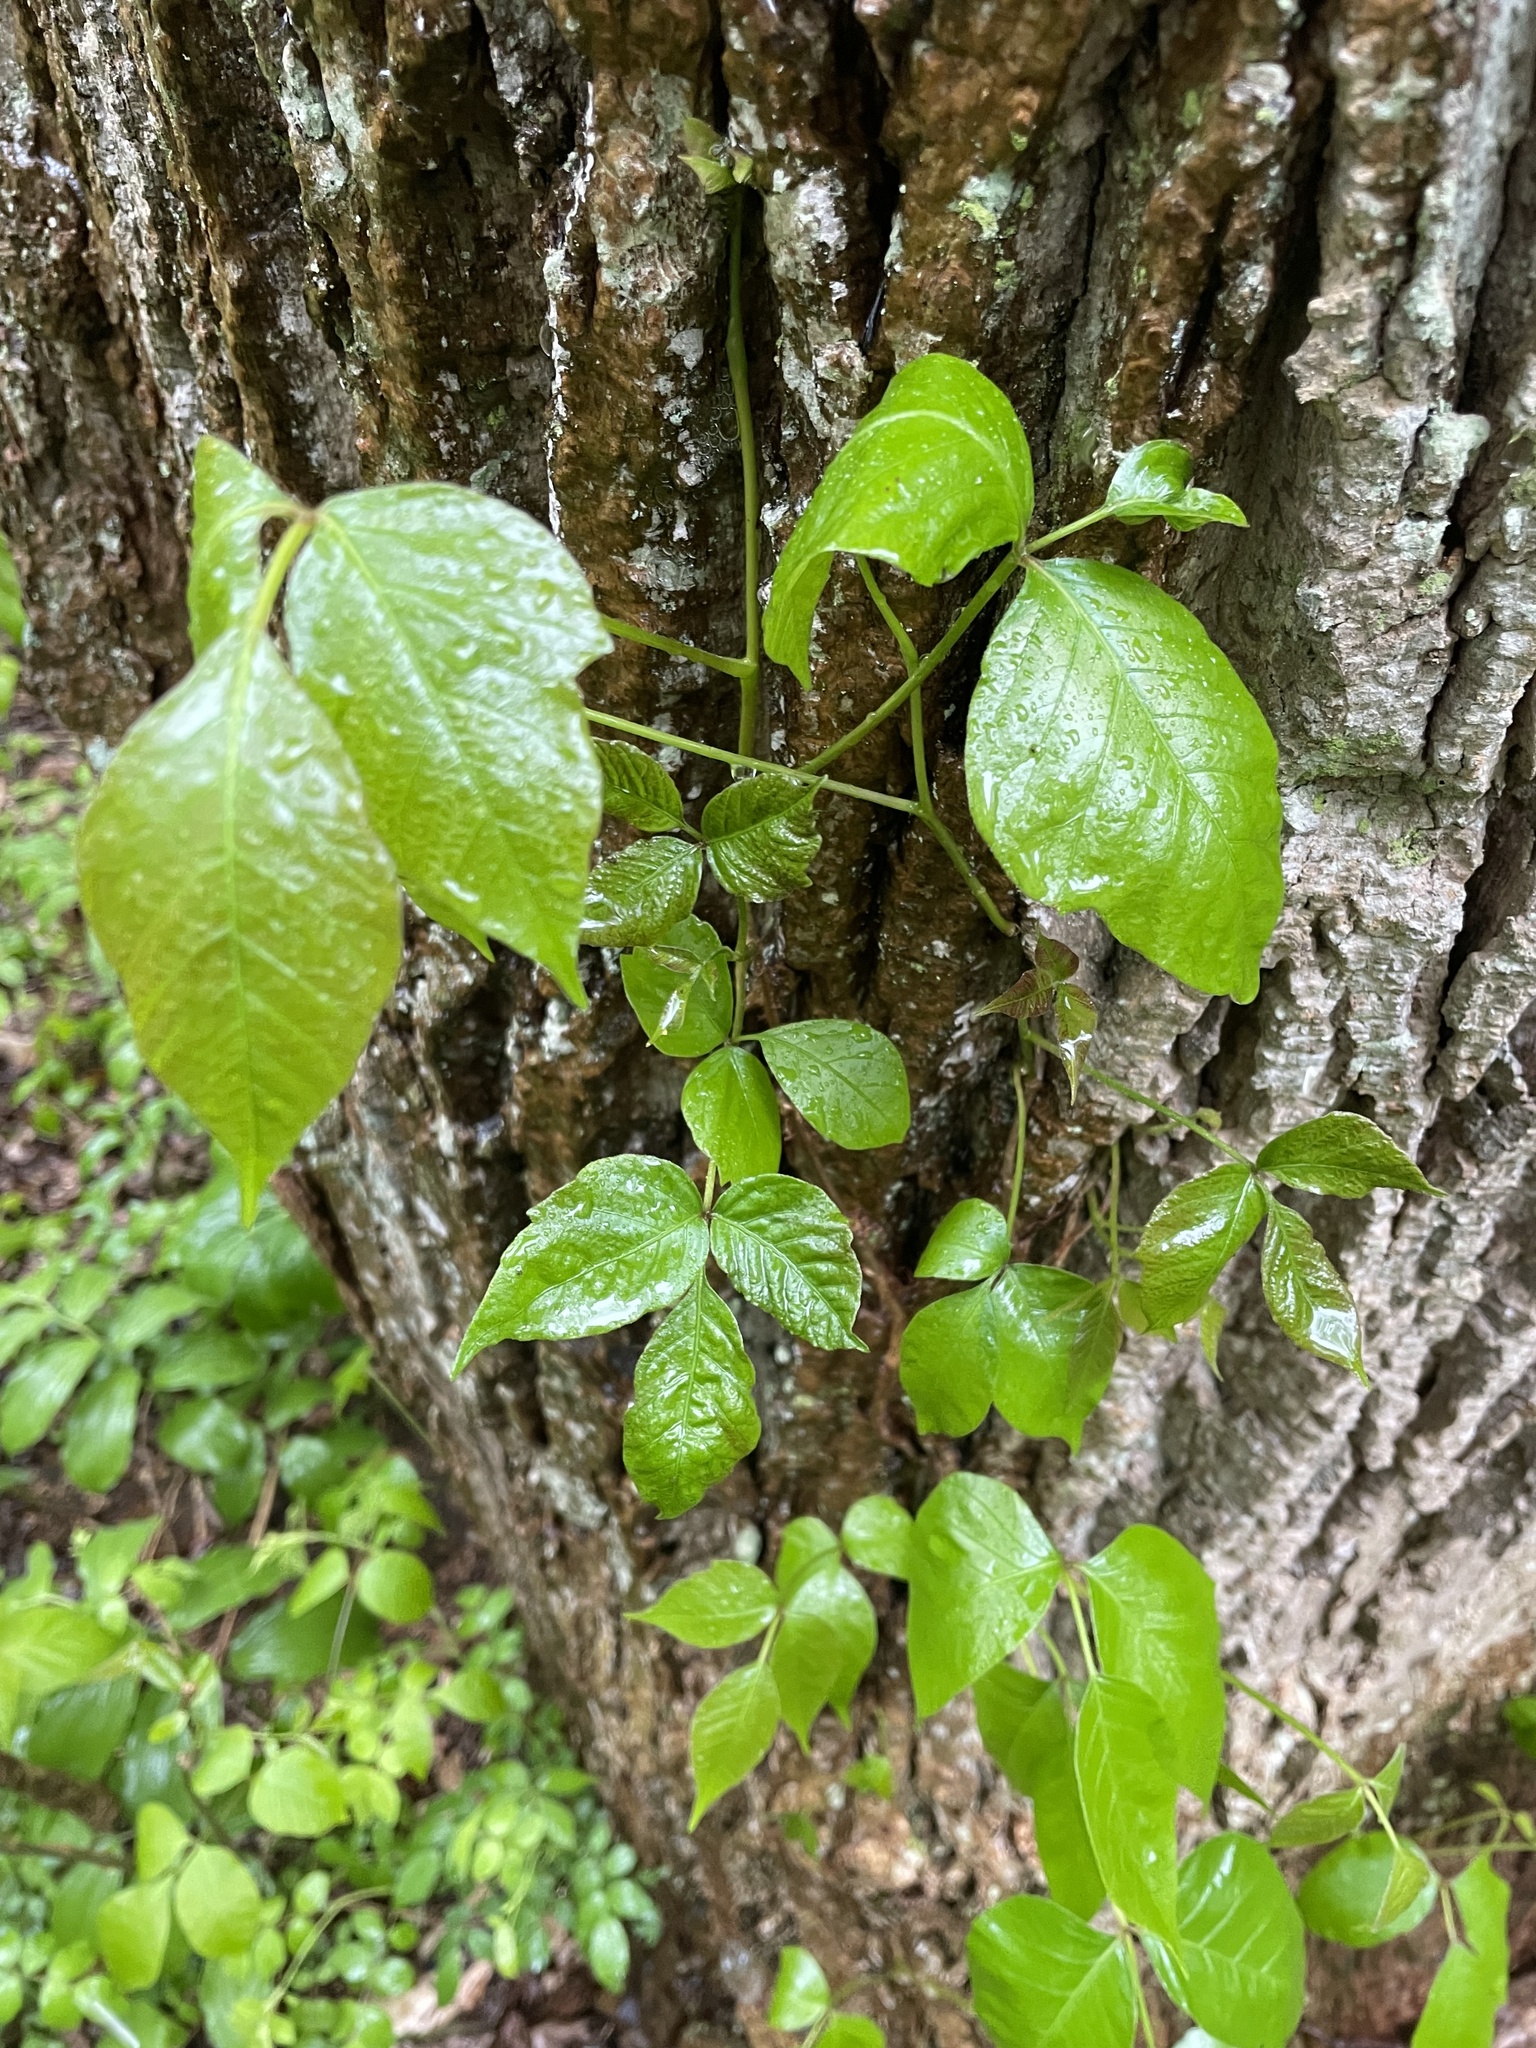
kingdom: Plantae
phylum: Tracheophyta
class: Magnoliopsida
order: Sapindales
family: Anacardiaceae
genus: Toxicodendron
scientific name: Toxicodendron radicans
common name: Poison ivy
